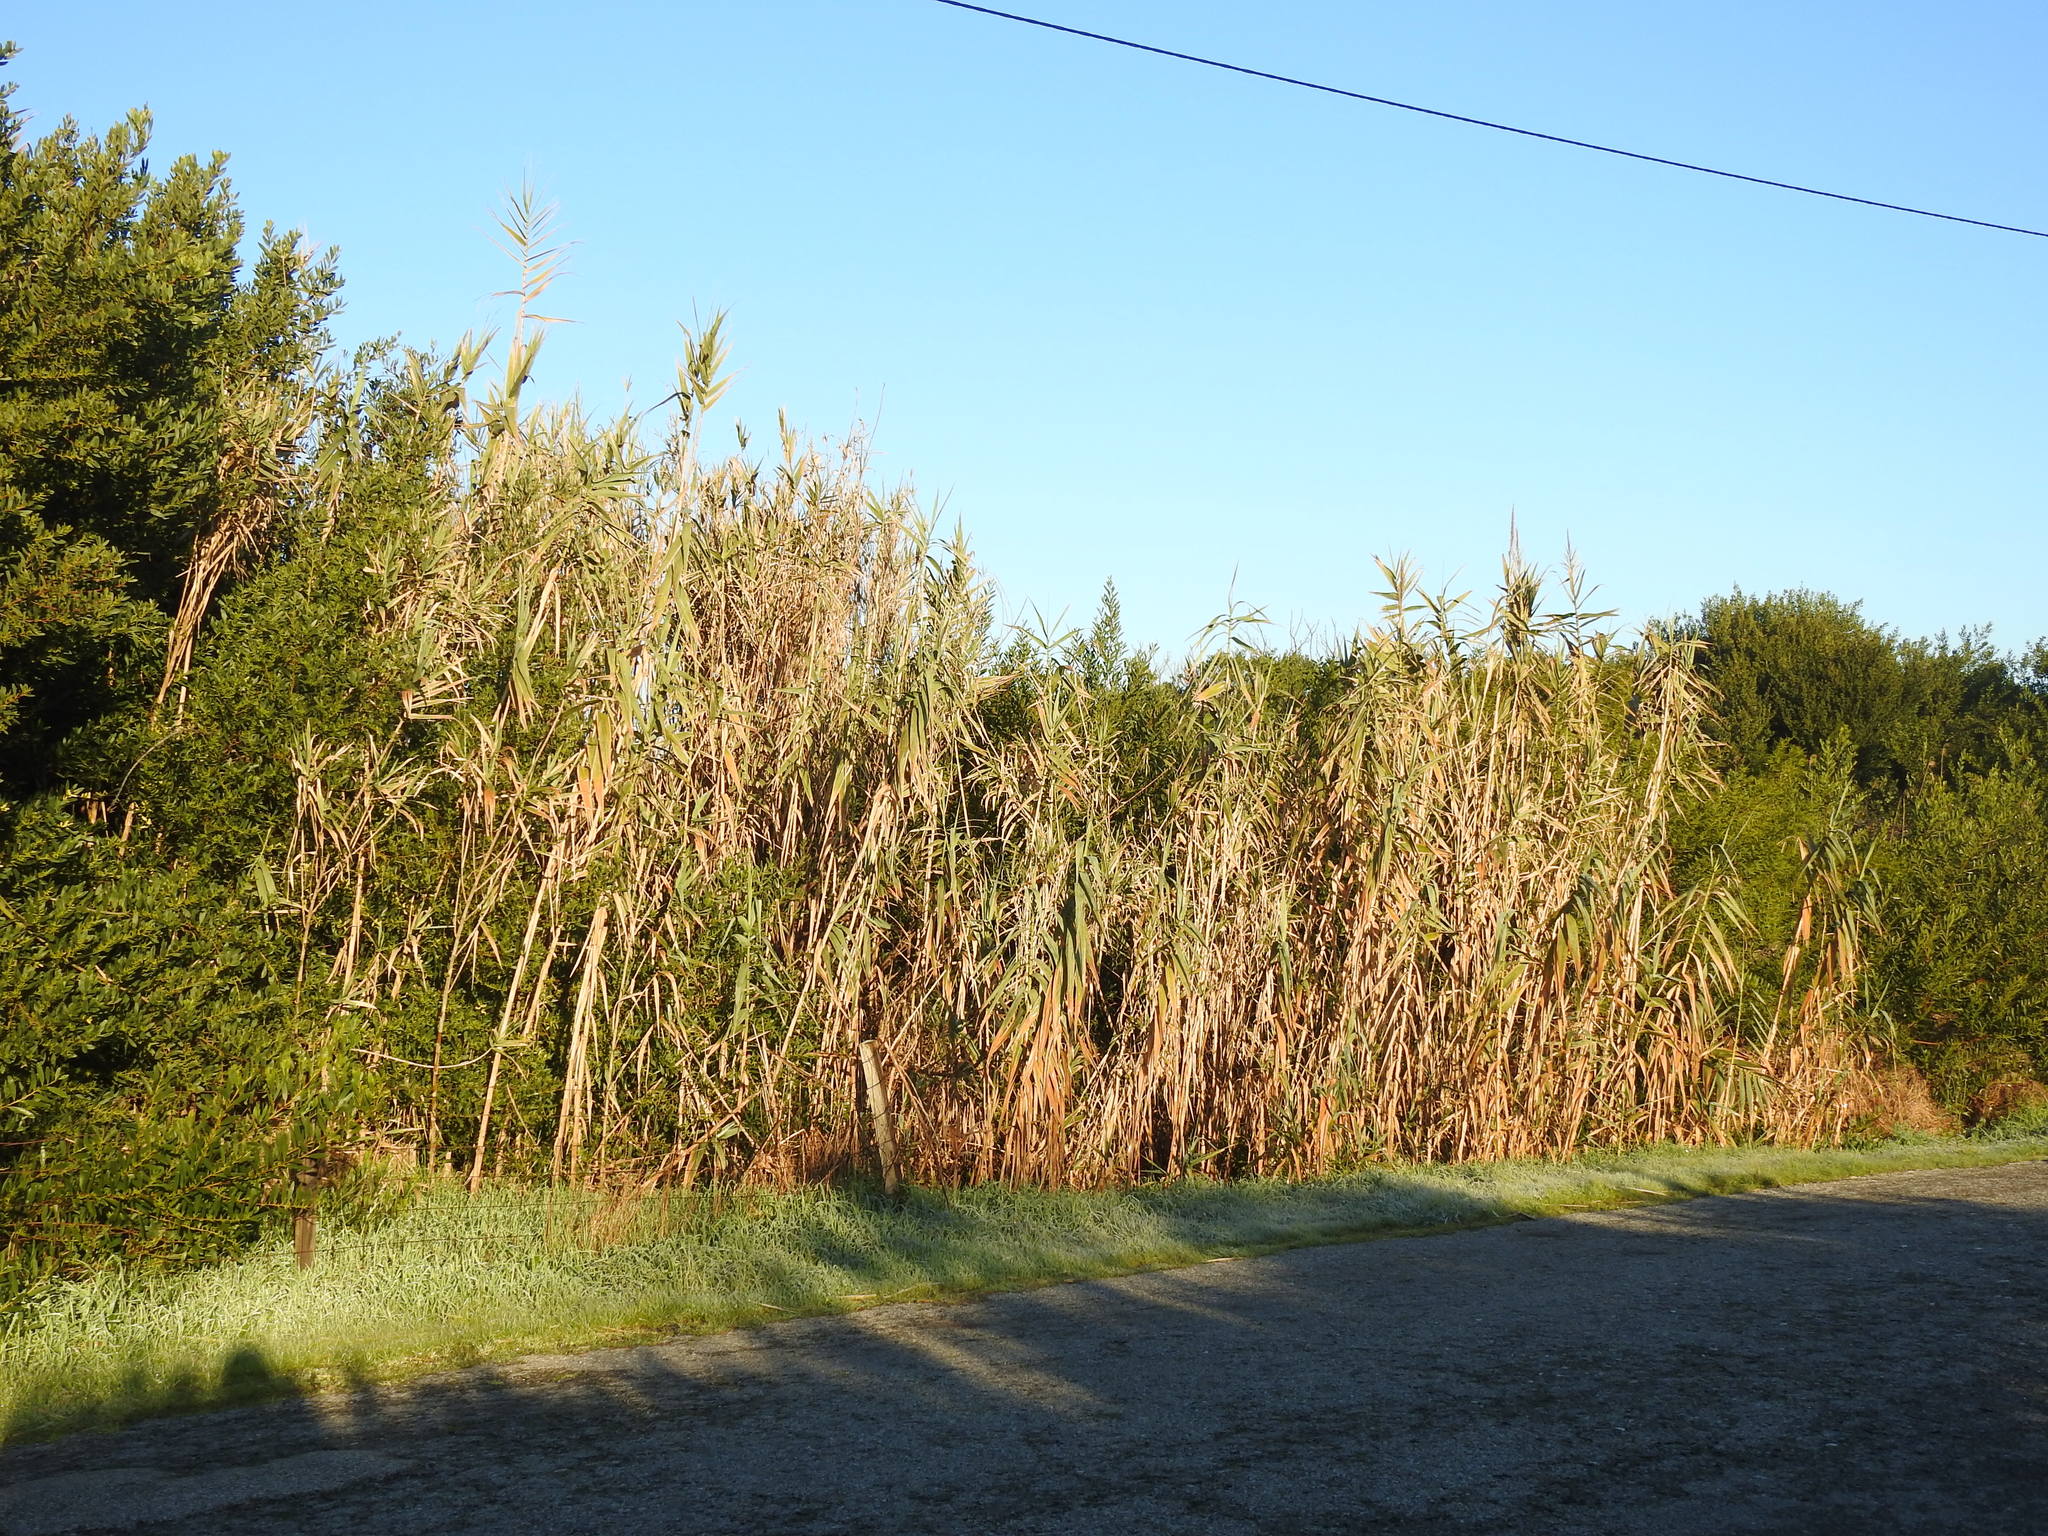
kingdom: Plantae
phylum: Tracheophyta
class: Liliopsida
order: Poales
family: Poaceae
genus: Arundo
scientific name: Arundo donax
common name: Giant reed
